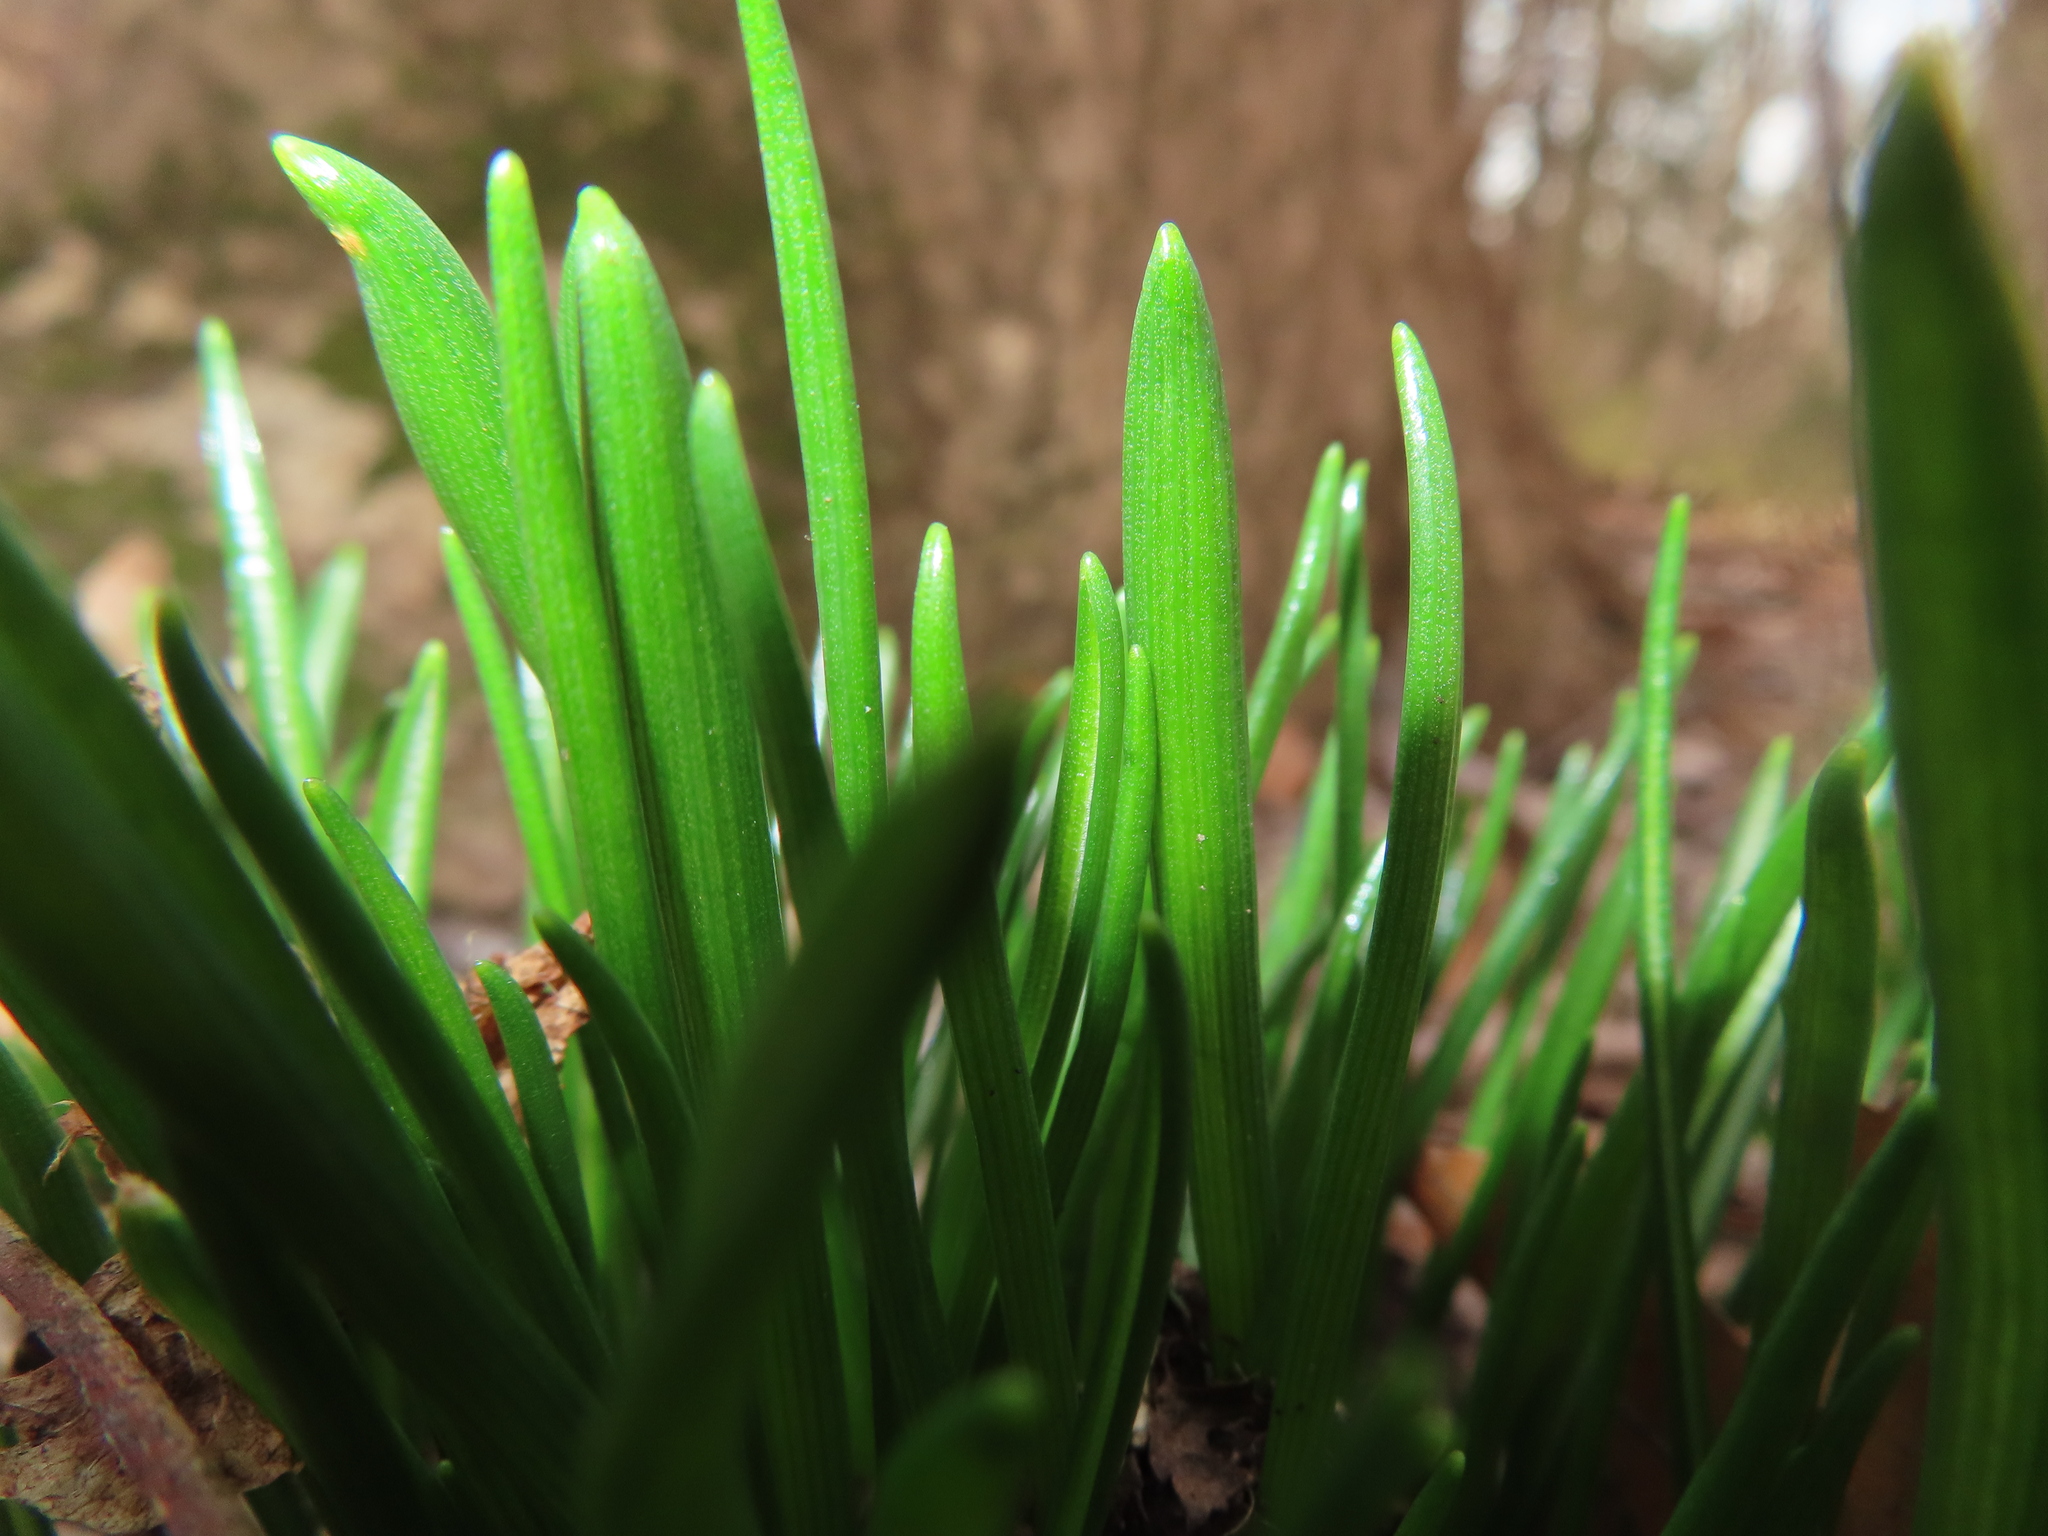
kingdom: Plantae
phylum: Tracheophyta
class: Liliopsida
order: Asparagales
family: Asparagaceae
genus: Ornithogalum
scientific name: Ornithogalum umbellatum
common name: Garden star-of-bethlehem
